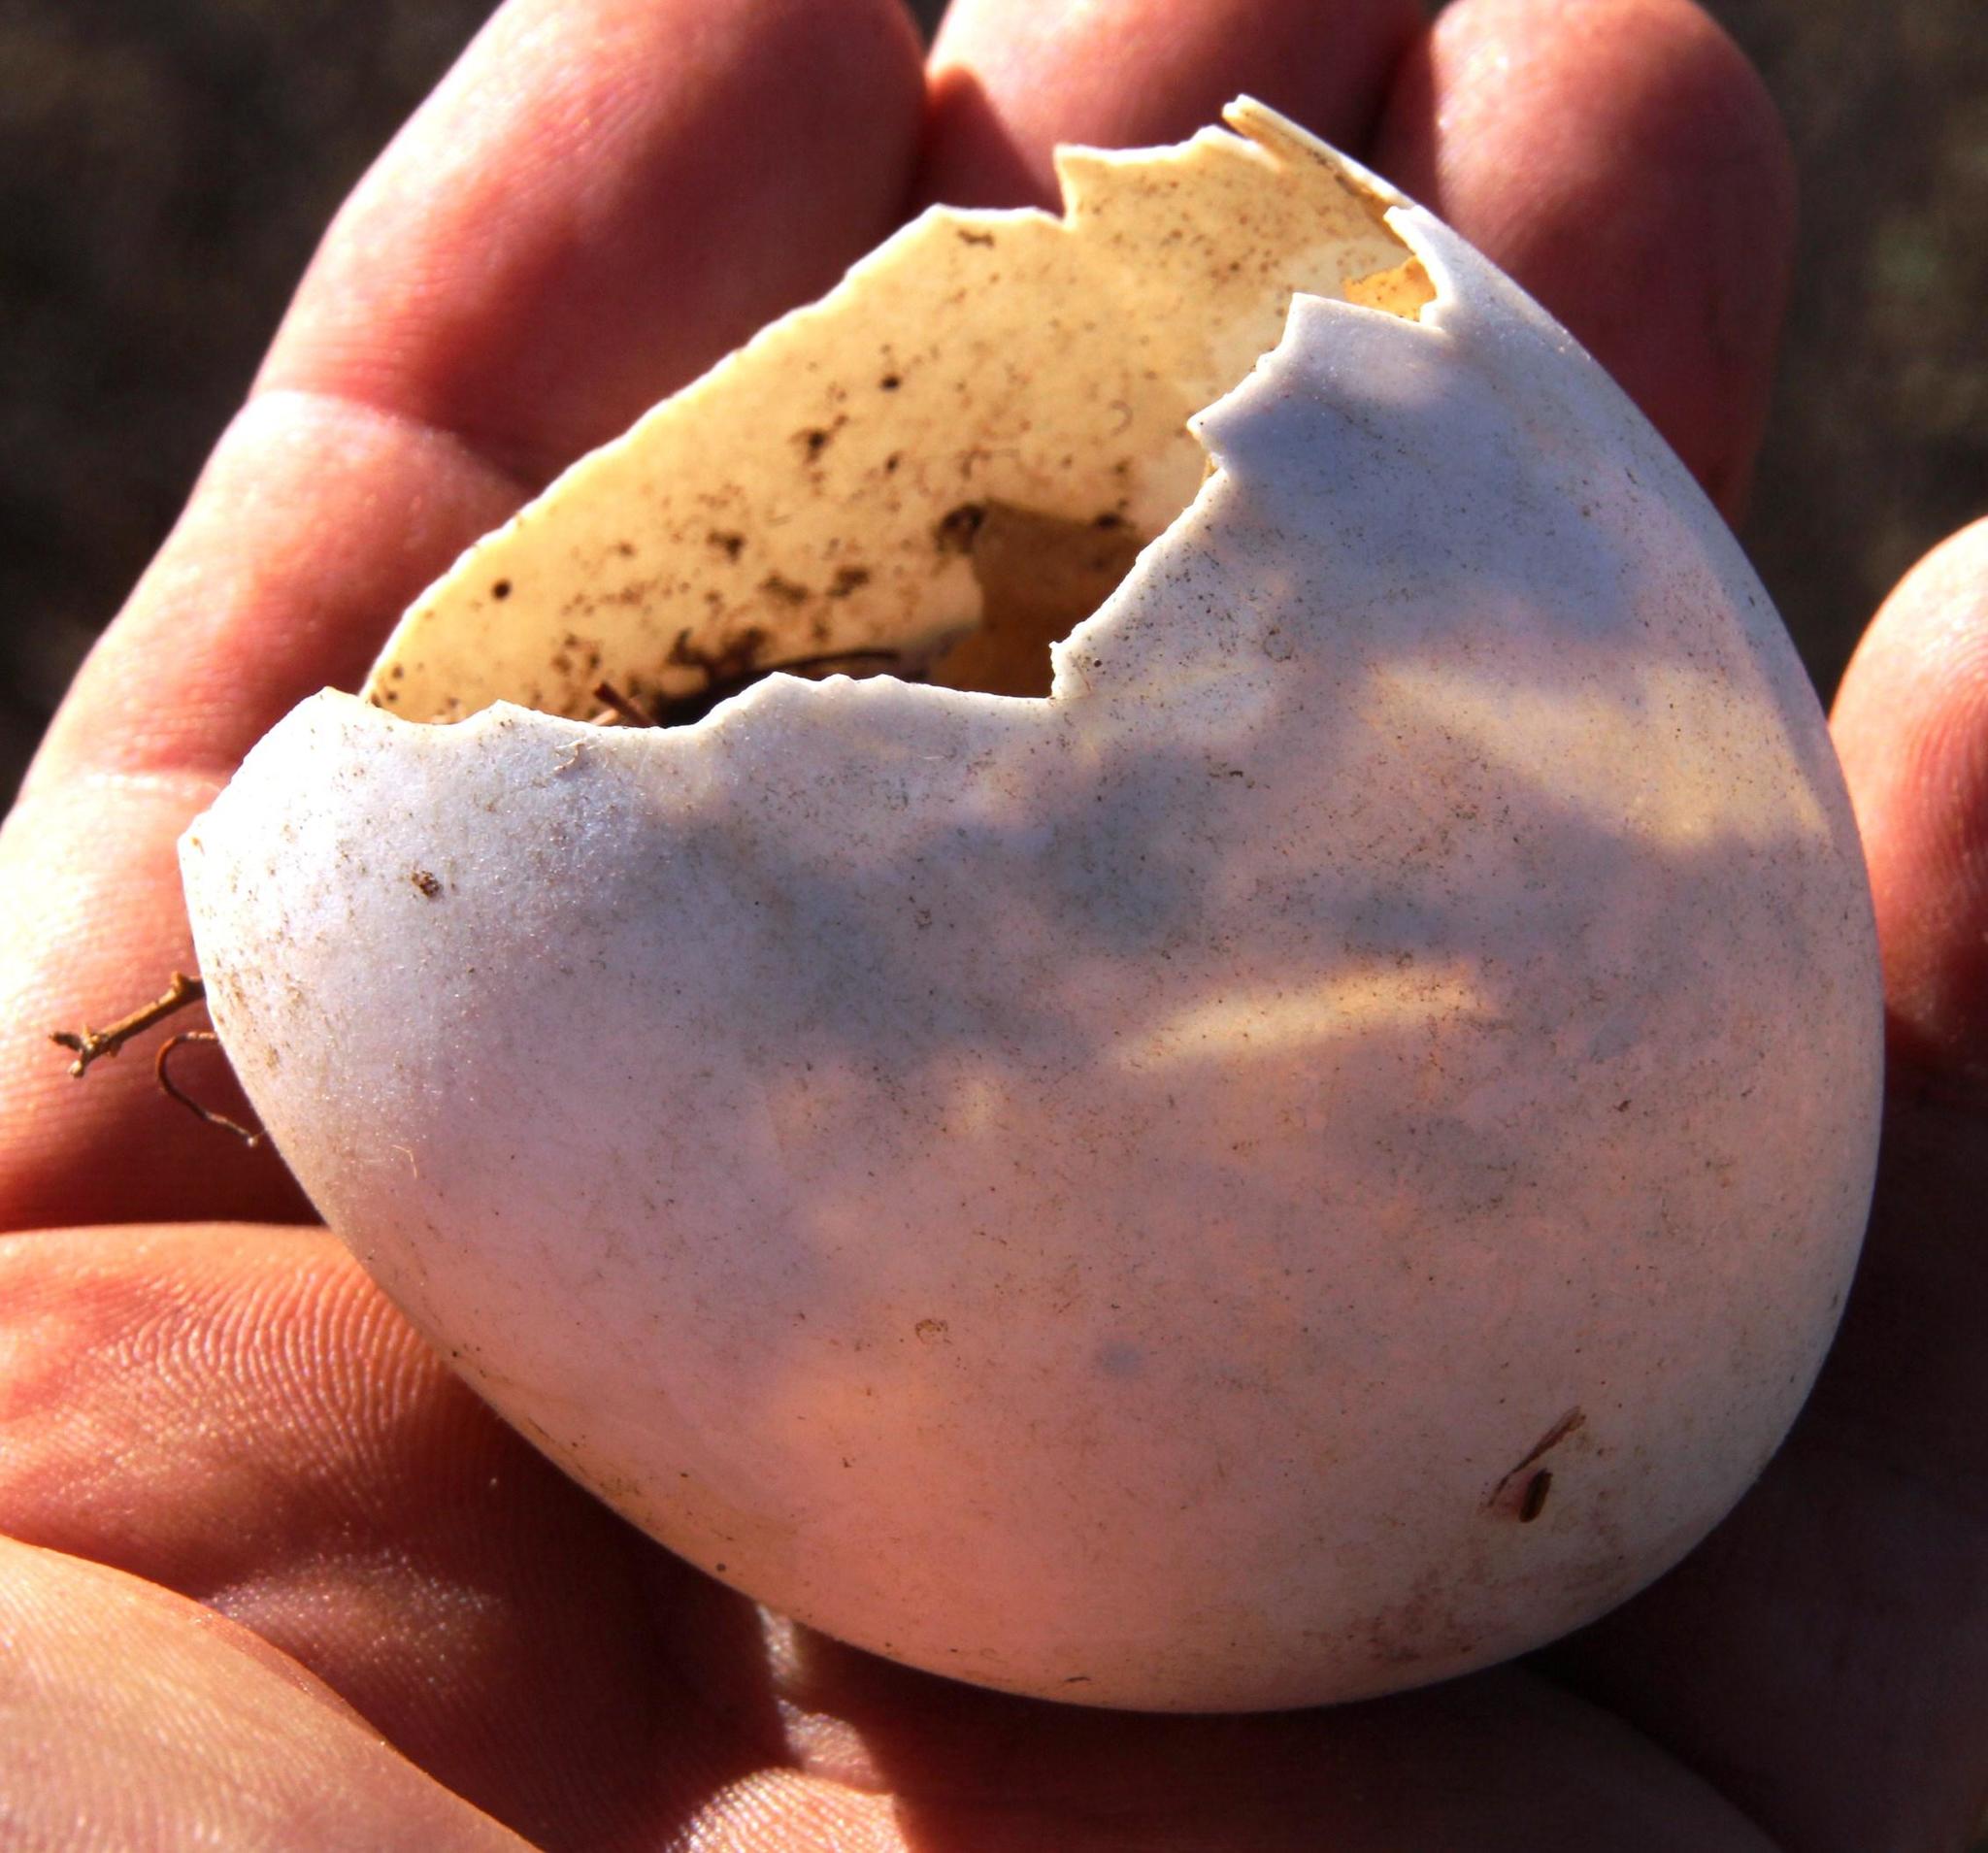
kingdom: Animalia
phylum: Chordata
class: Aves
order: Anseriformes
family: Anatidae
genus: Plectropterus
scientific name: Plectropterus gambensis
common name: Spur-winged goose
